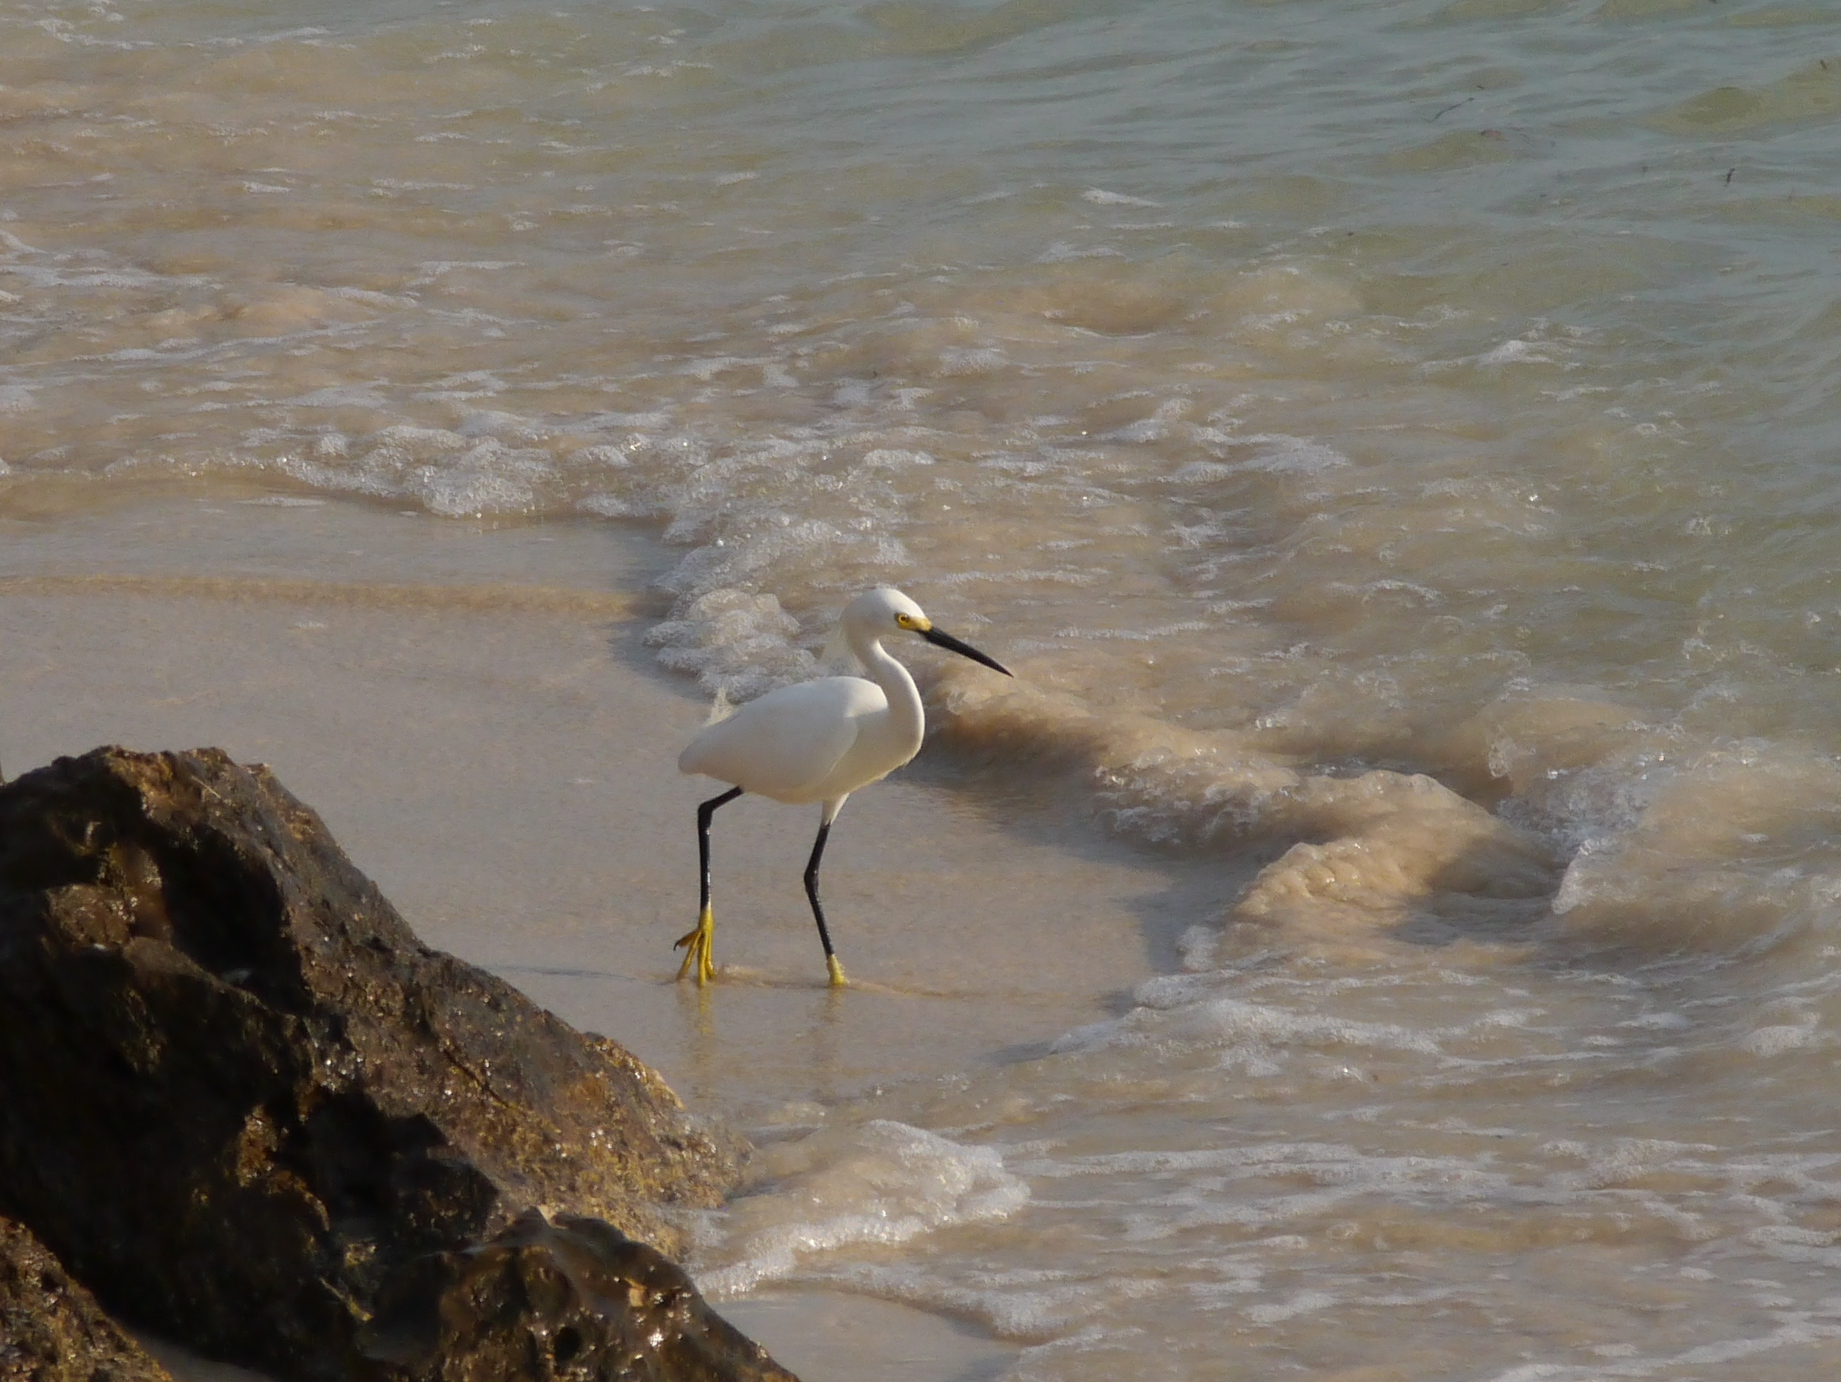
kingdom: Animalia
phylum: Chordata
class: Aves
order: Pelecaniformes
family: Ardeidae
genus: Egretta
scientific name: Egretta thula
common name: Snowy egret
